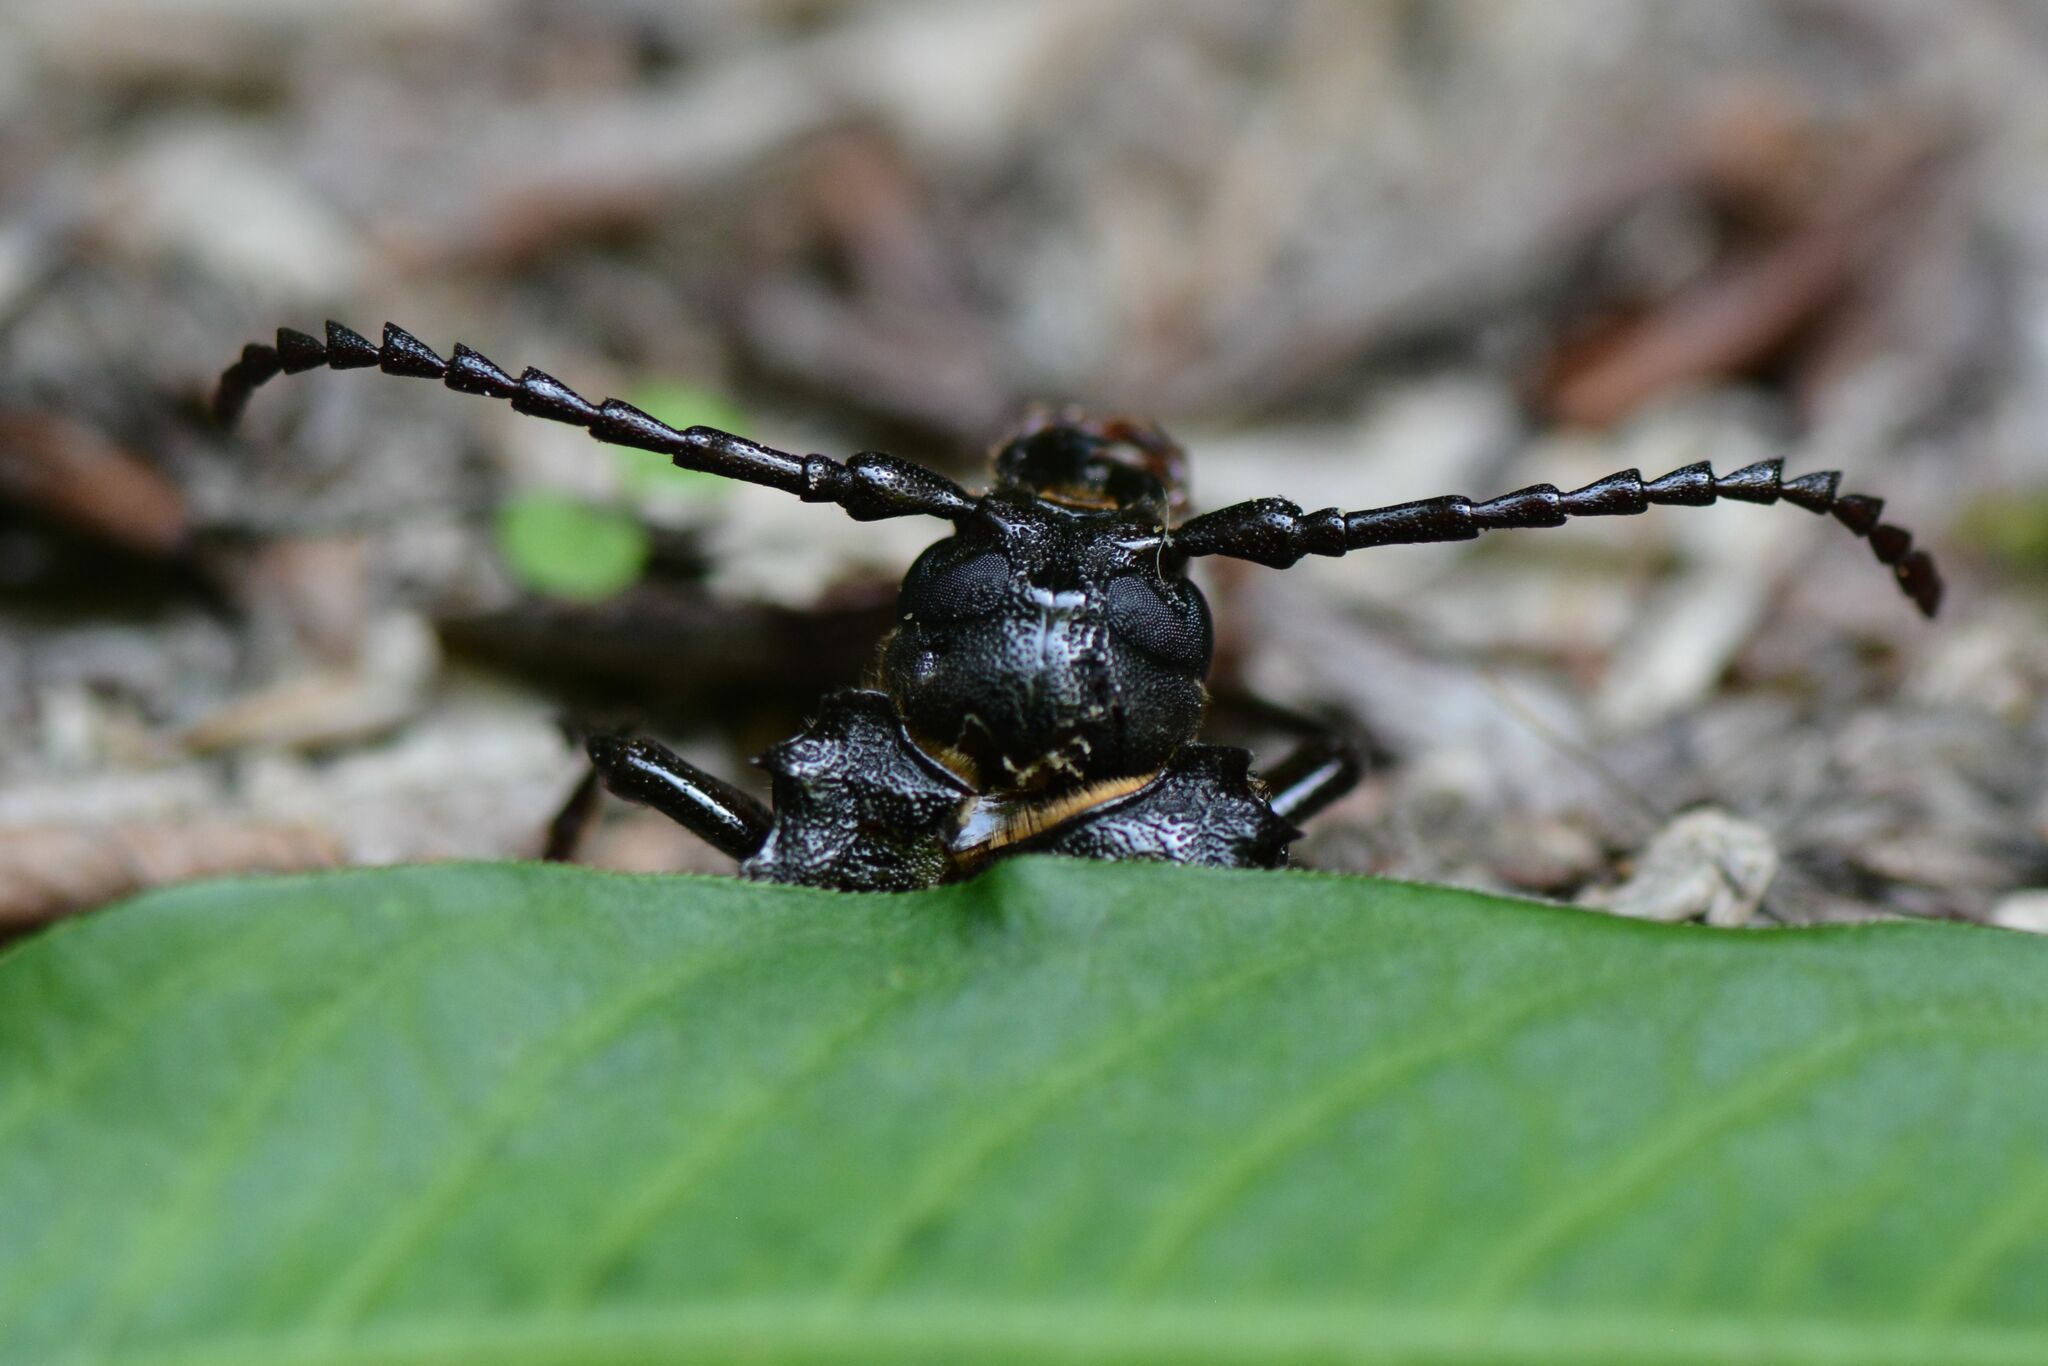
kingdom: Animalia
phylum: Arthropoda
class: Insecta
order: Coleoptera
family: Cerambycidae
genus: Prionus
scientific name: Prionus coriarius
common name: Tanner beetle
